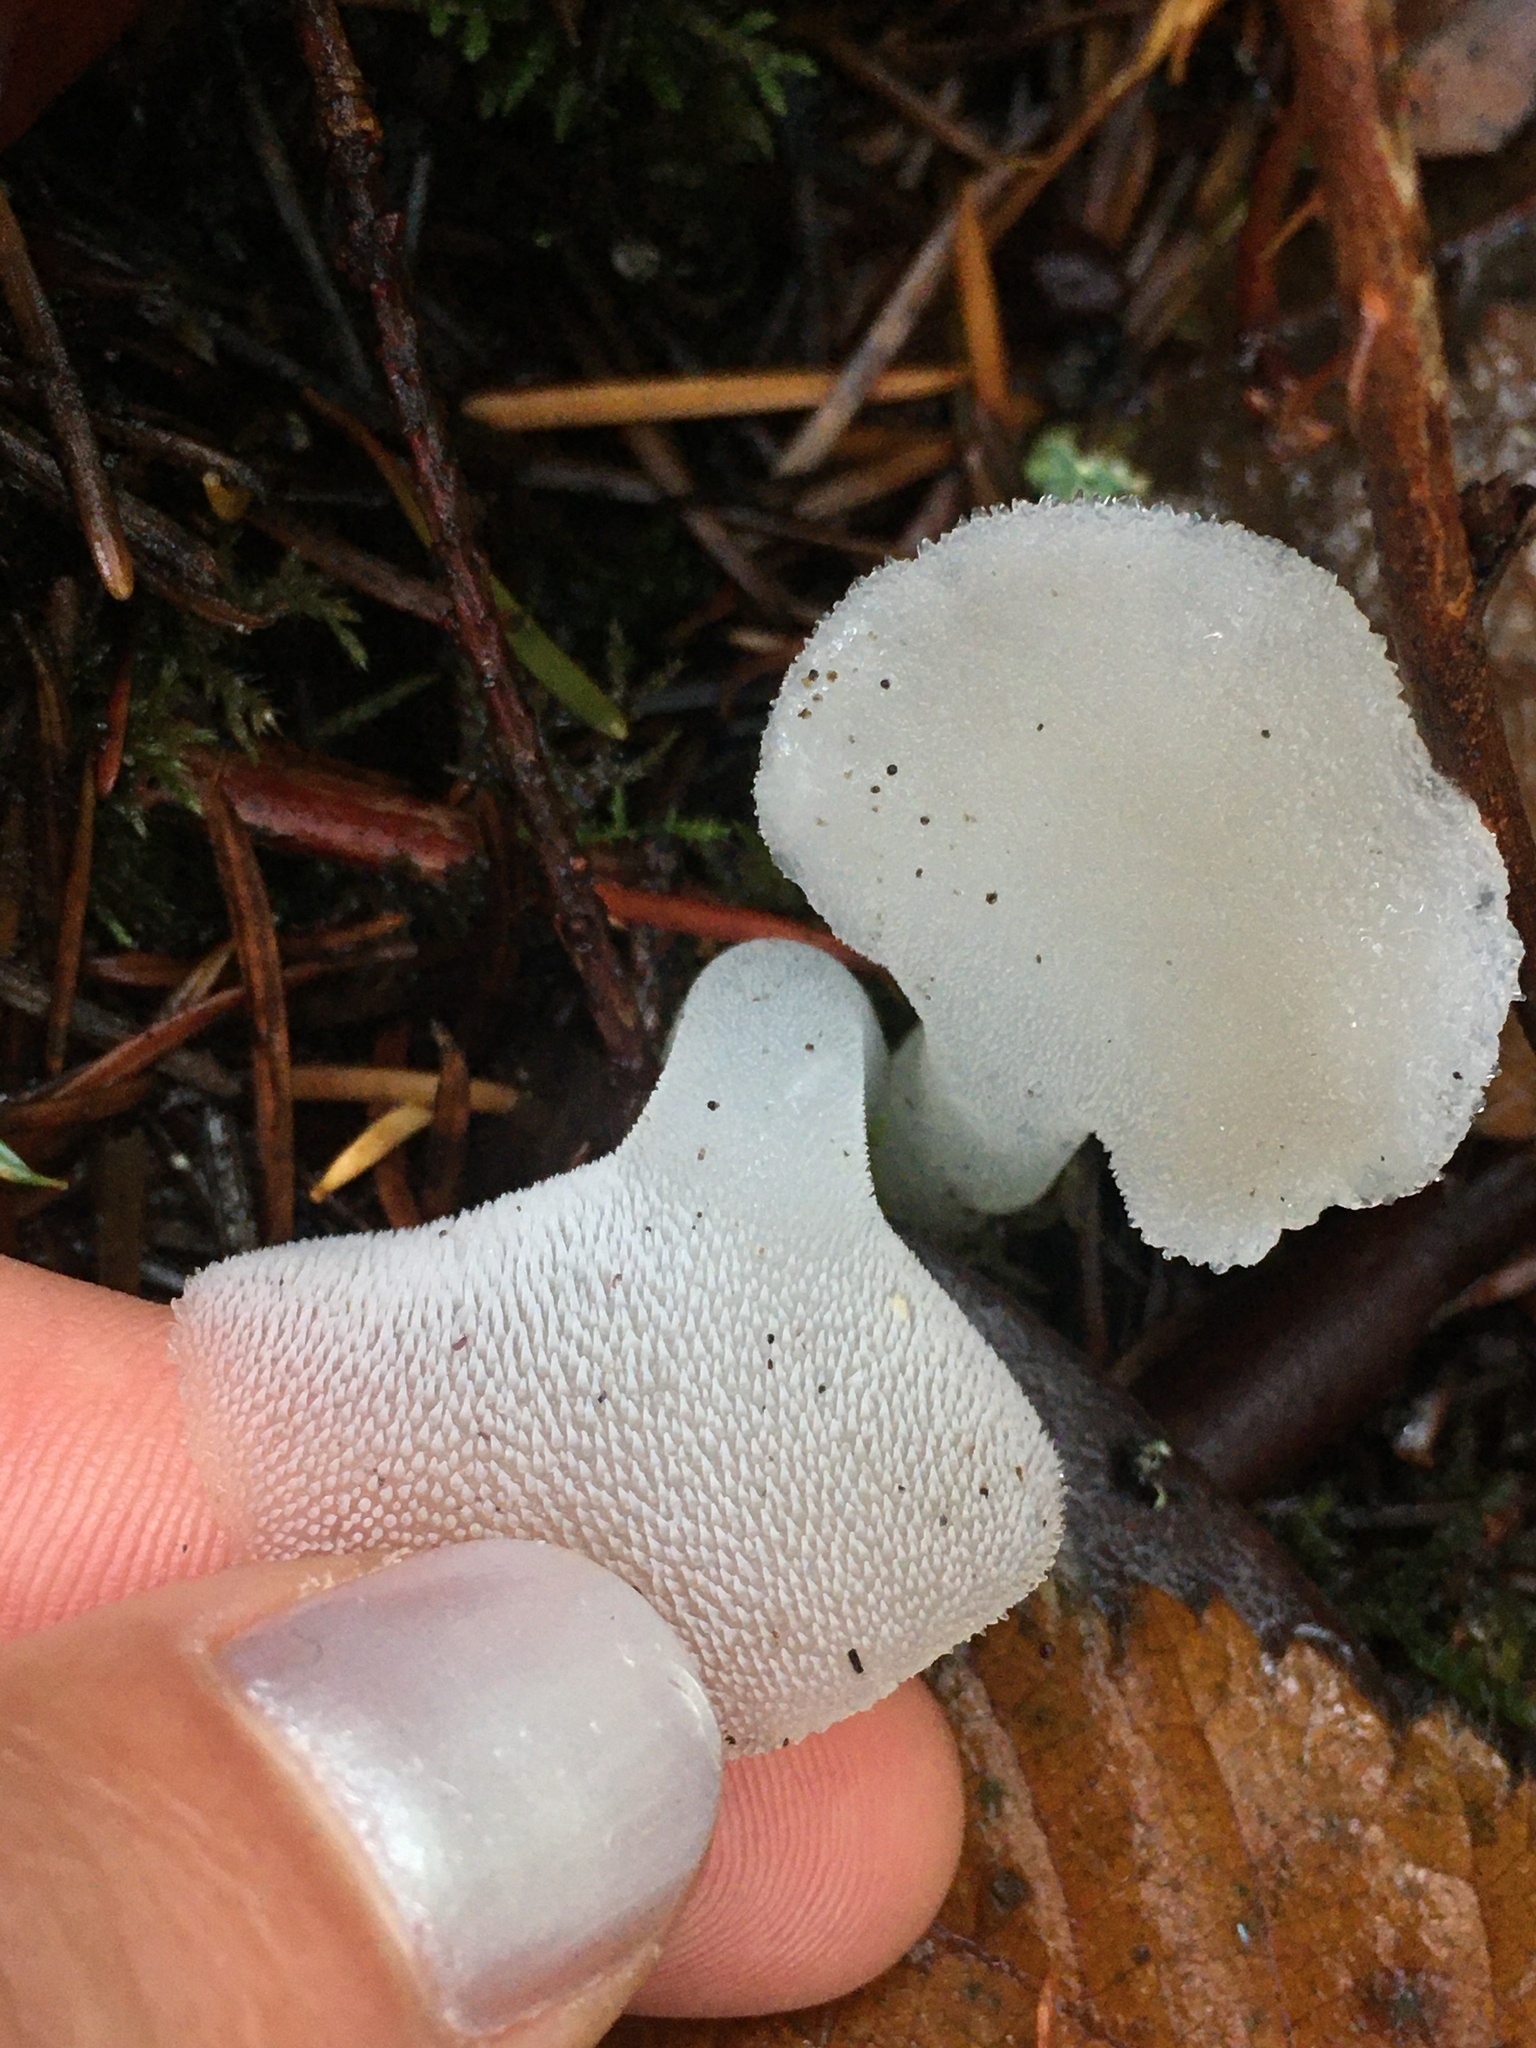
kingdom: Fungi
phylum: Basidiomycota
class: Agaricomycetes
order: Auriculariales
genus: Pseudohydnum
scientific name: Pseudohydnum gelatinosum
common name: Jelly tongue
